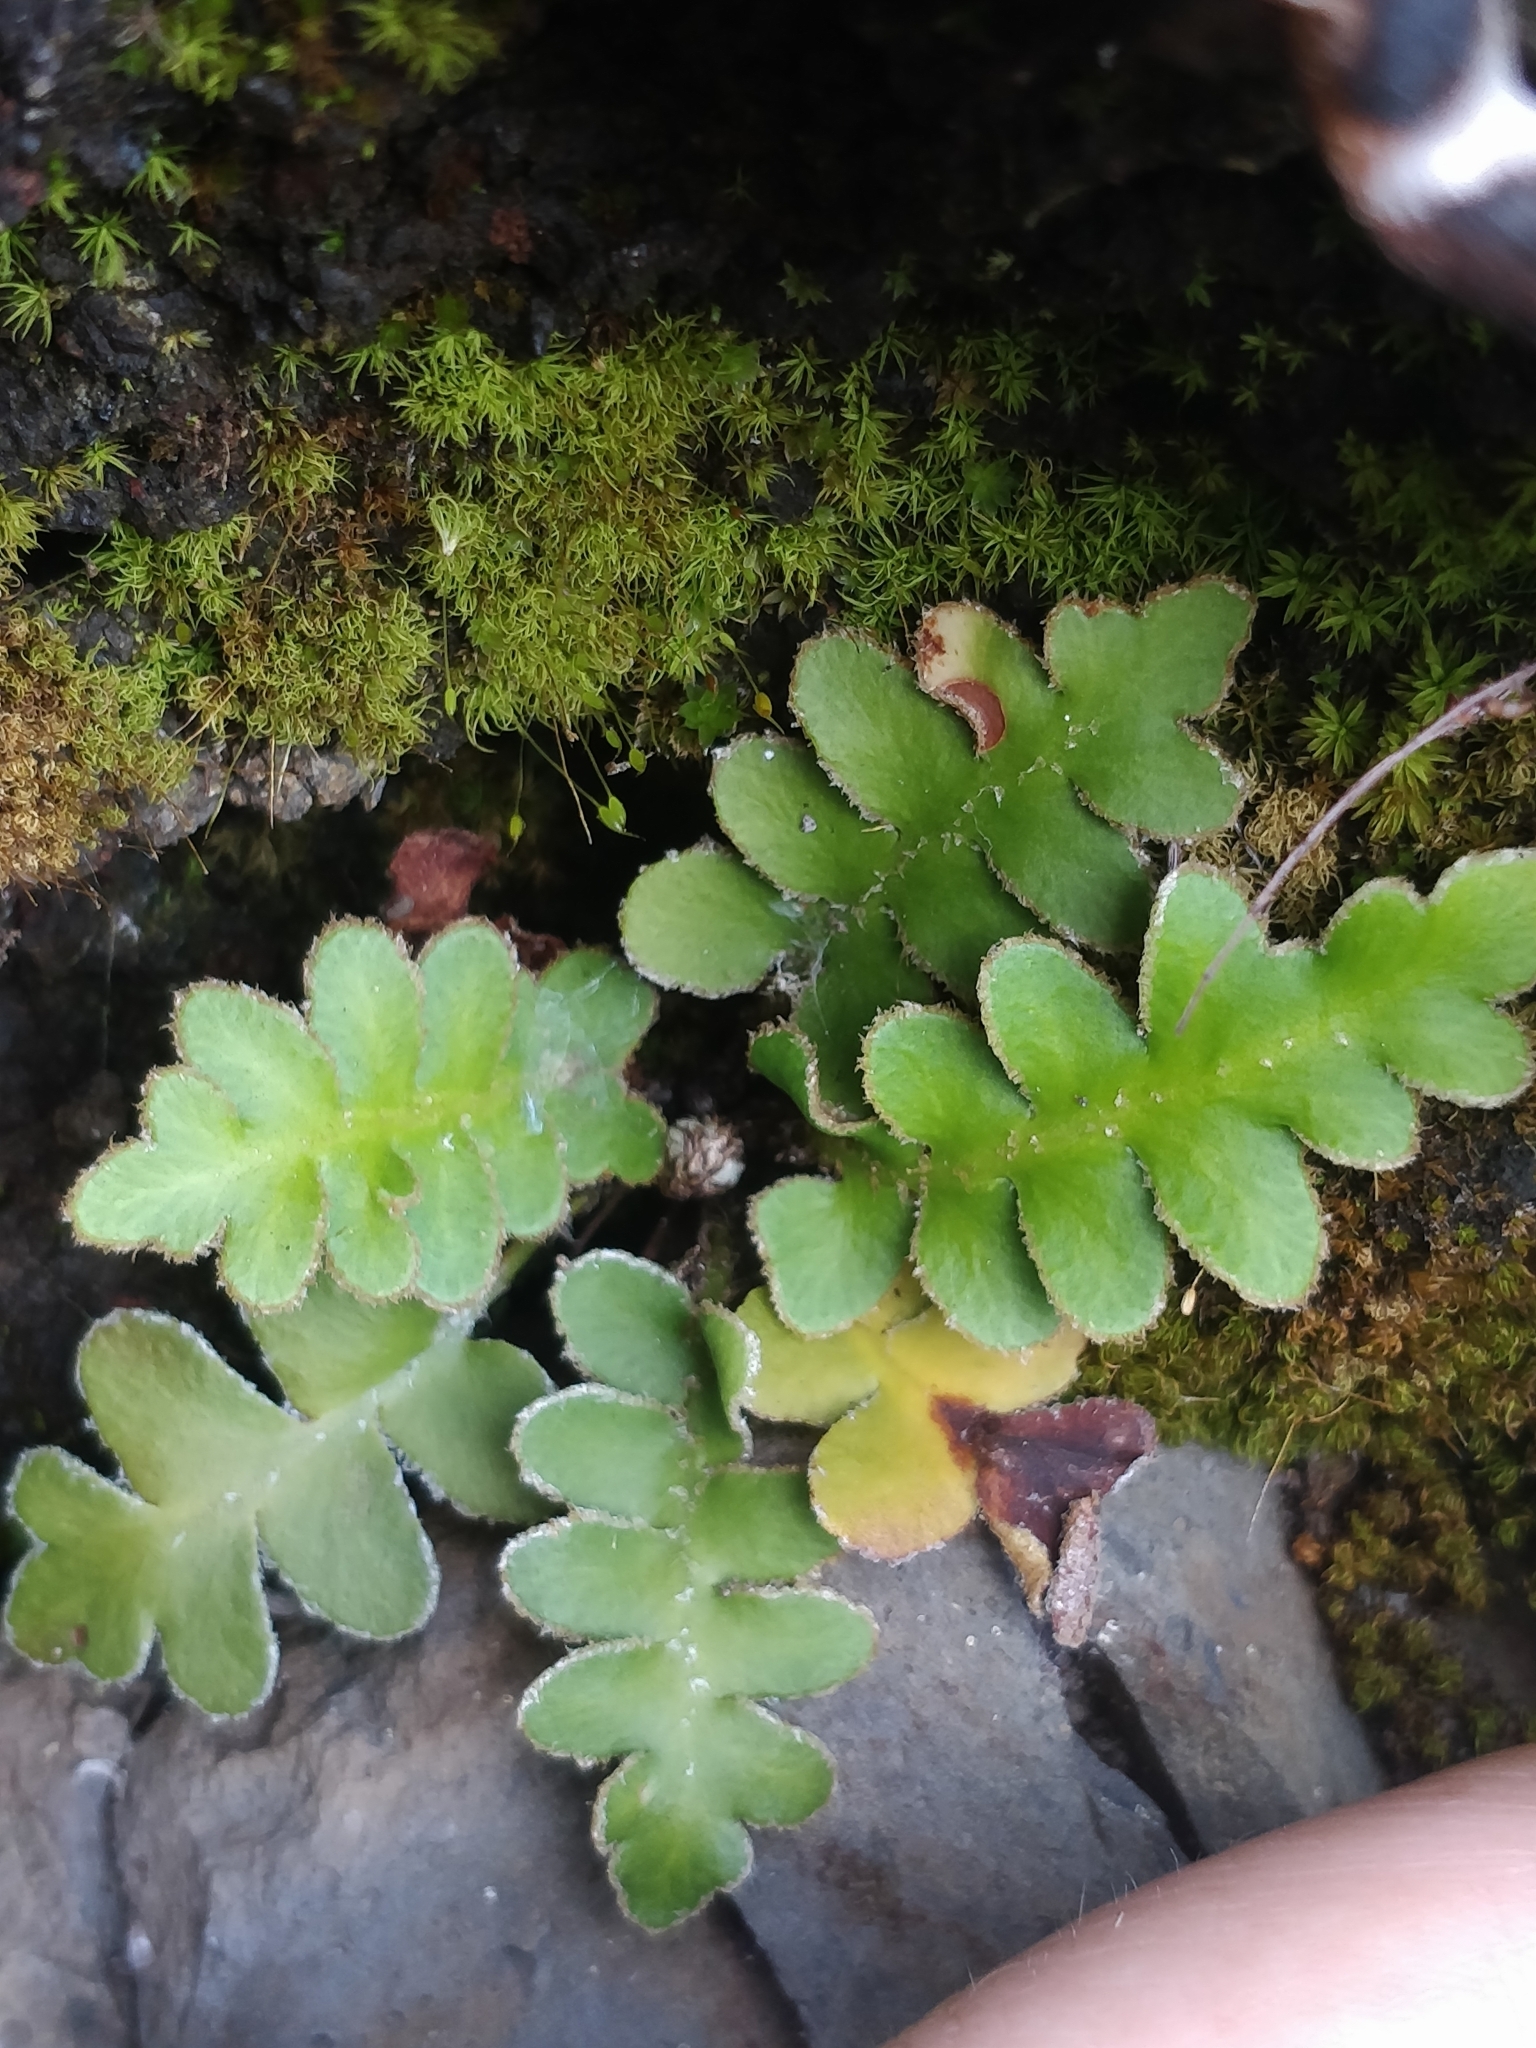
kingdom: Plantae
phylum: Tracheophyta
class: Polypodiopsida
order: Polypodiales
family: Aspleniaceae
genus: Asplenium
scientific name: Asplenium lolegnamense
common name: Madeira rustyback fern
